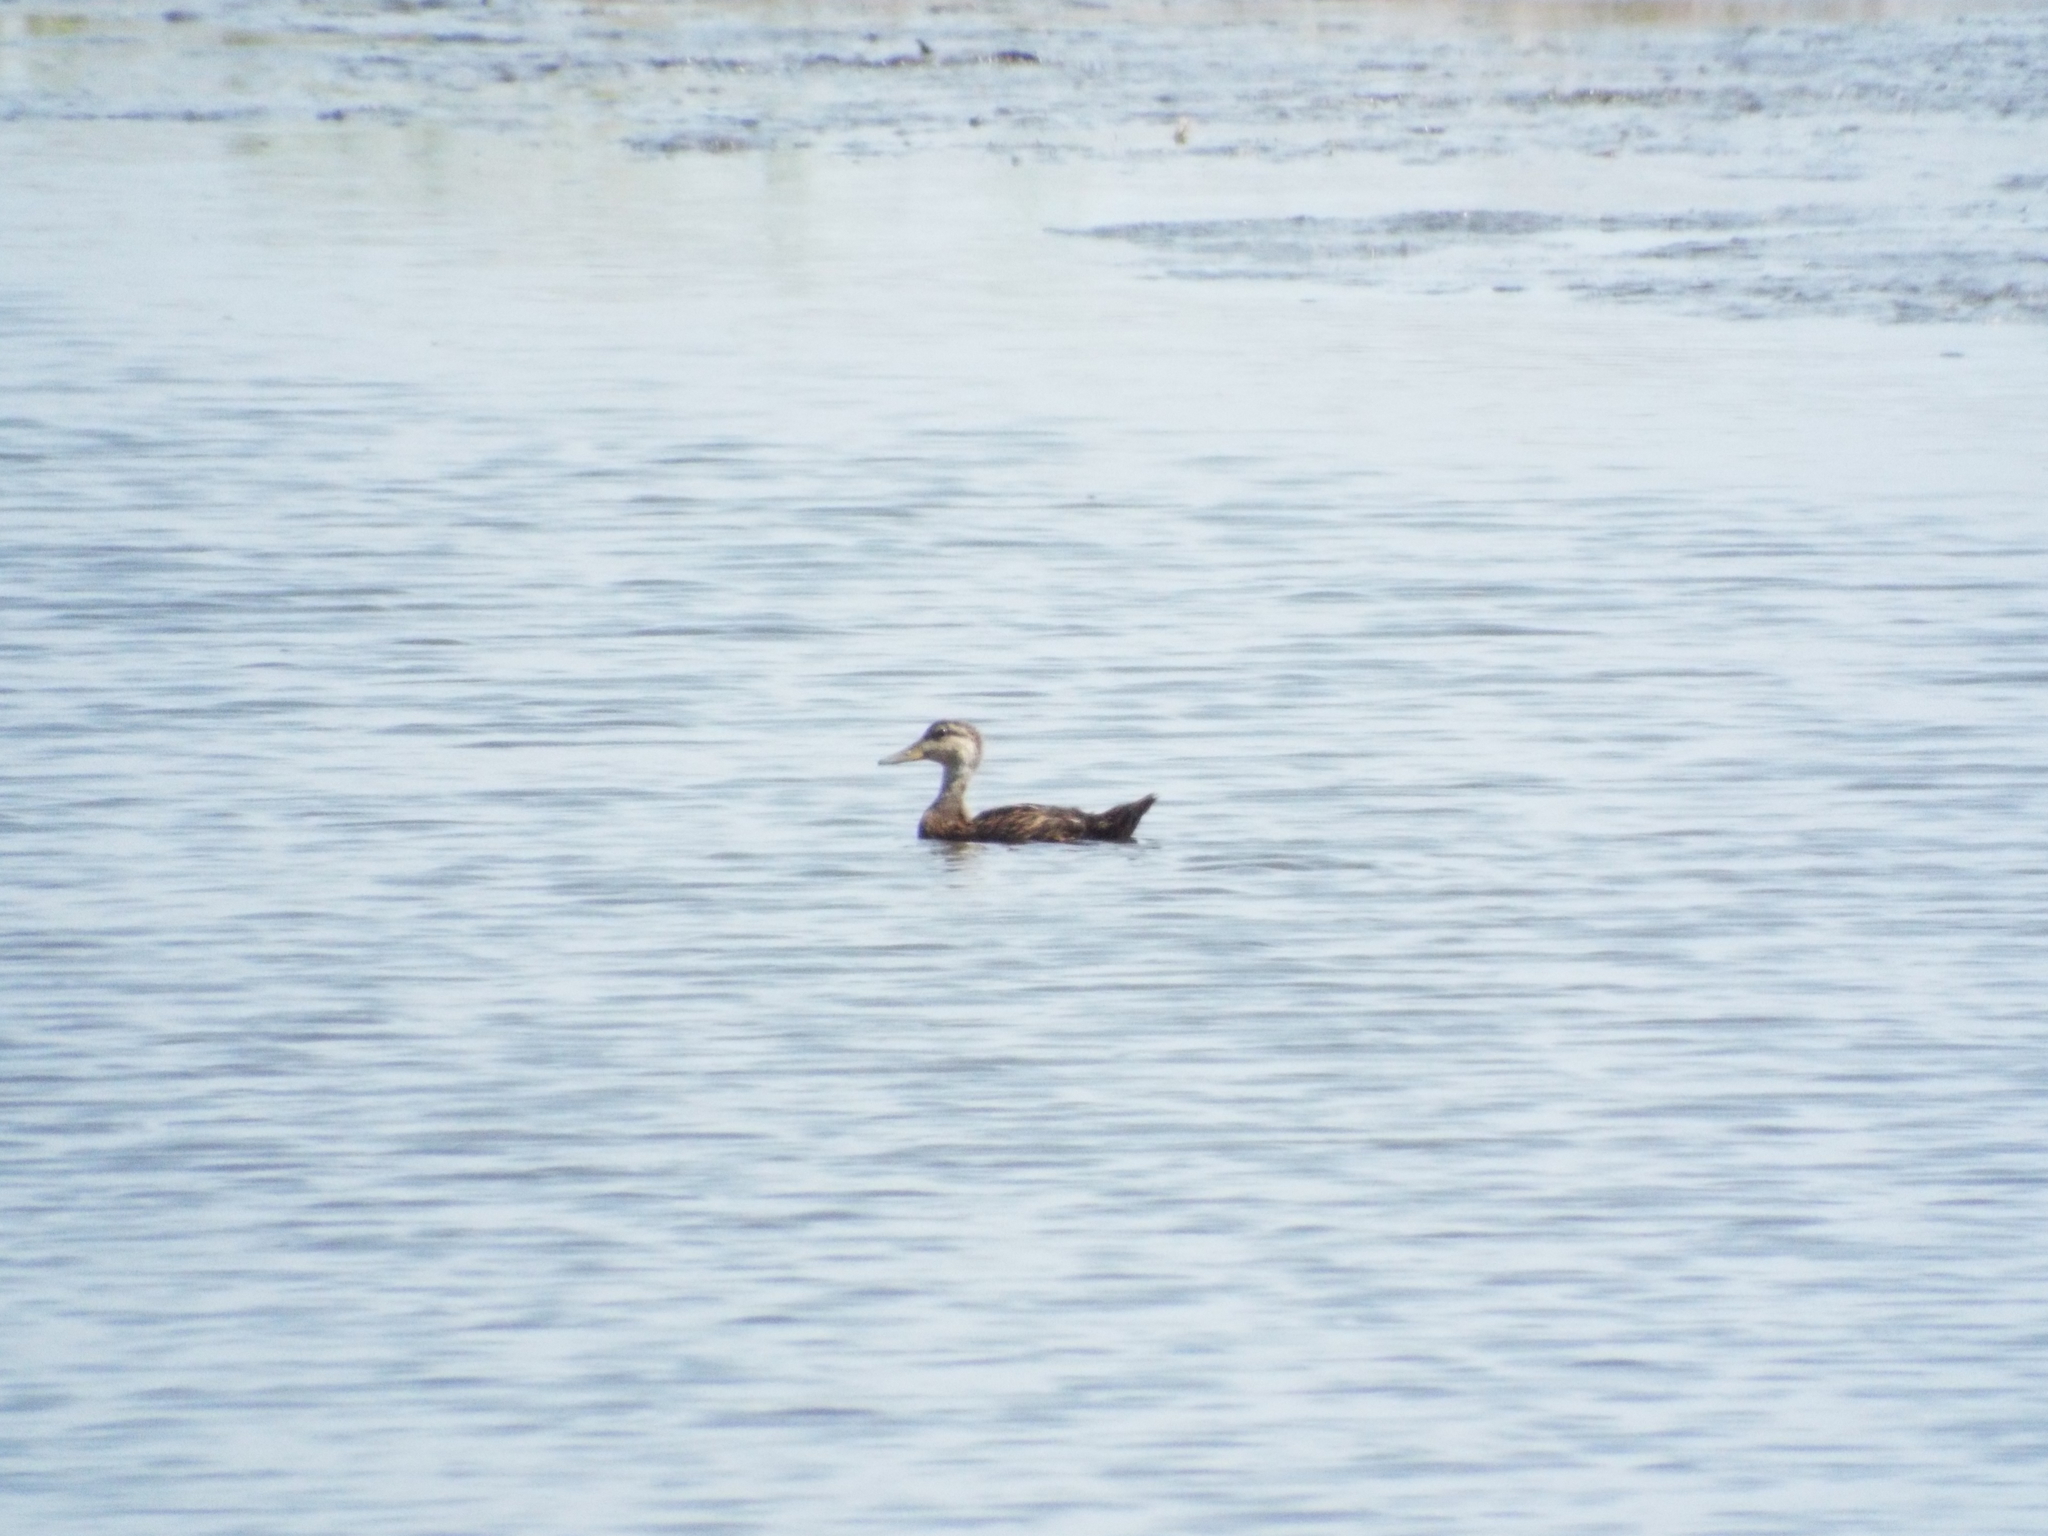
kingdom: Animalia
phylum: Chordata
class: Aves
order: Anseriformes
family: Anatidae
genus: Anas
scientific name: Anas fulvigula
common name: Mottled duck
